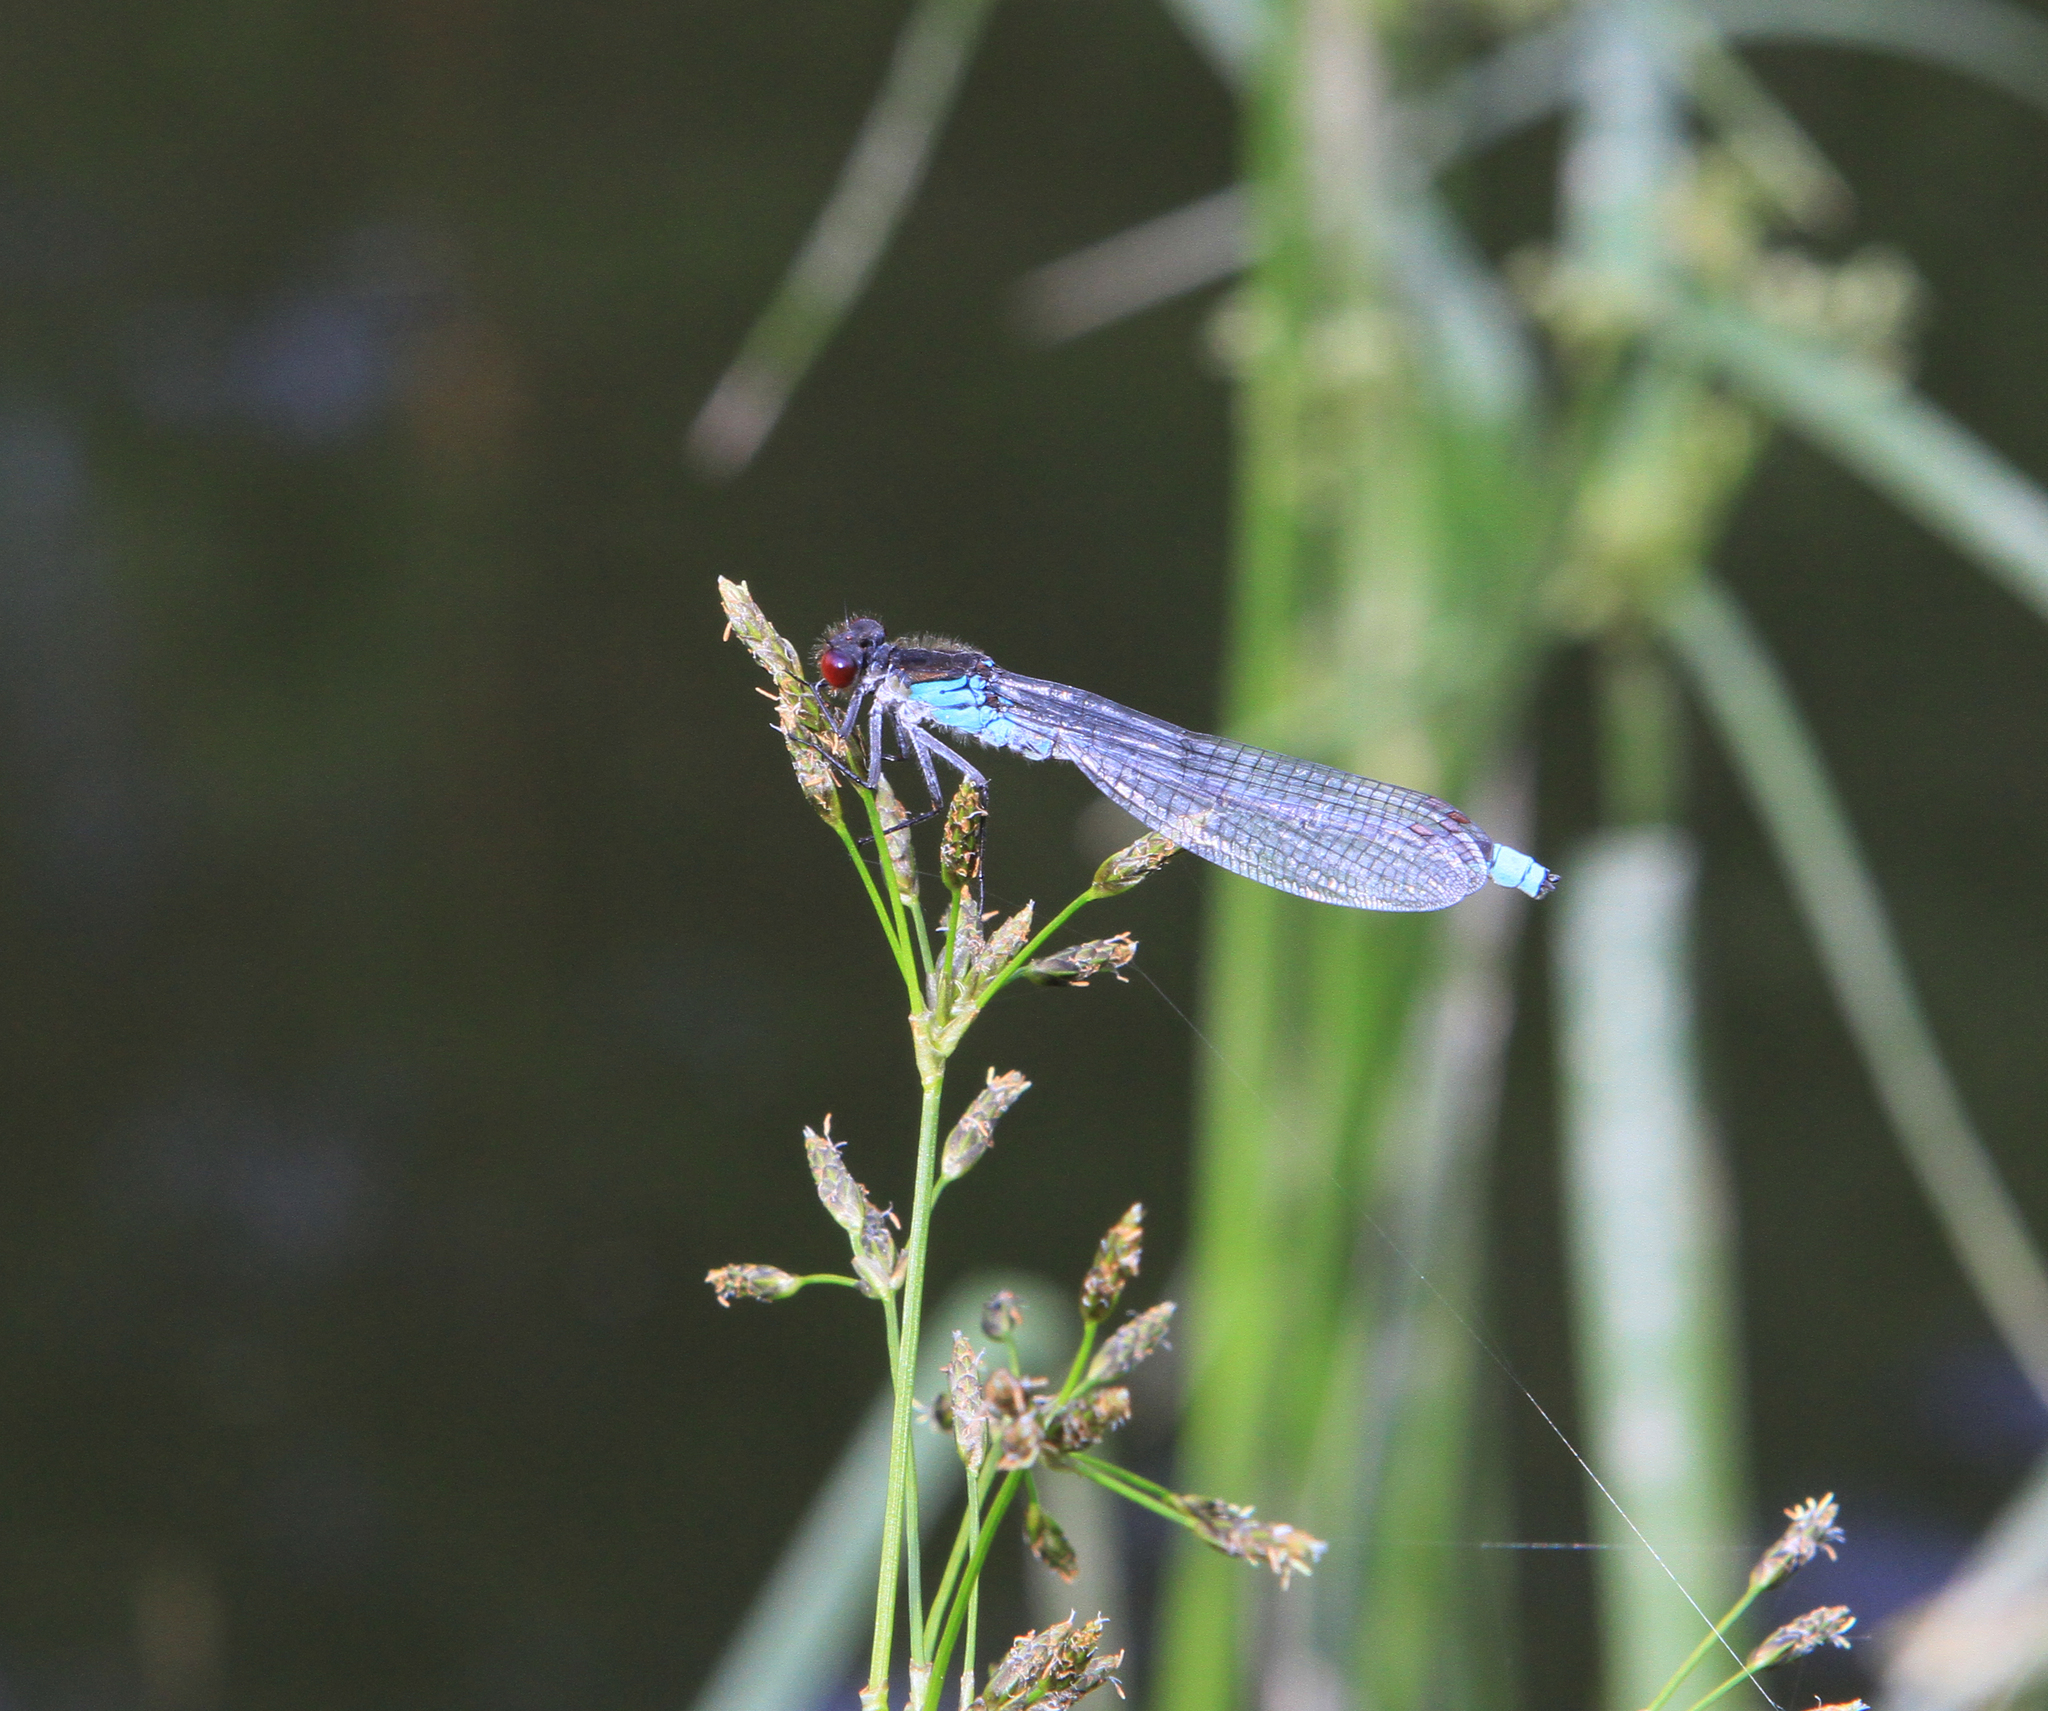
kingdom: Animalia
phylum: Arthropoda
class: Insecta
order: Odonata
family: Coenagrionidae
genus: Erythromma
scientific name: Erythromma najas
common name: Red-eyed damselfly
